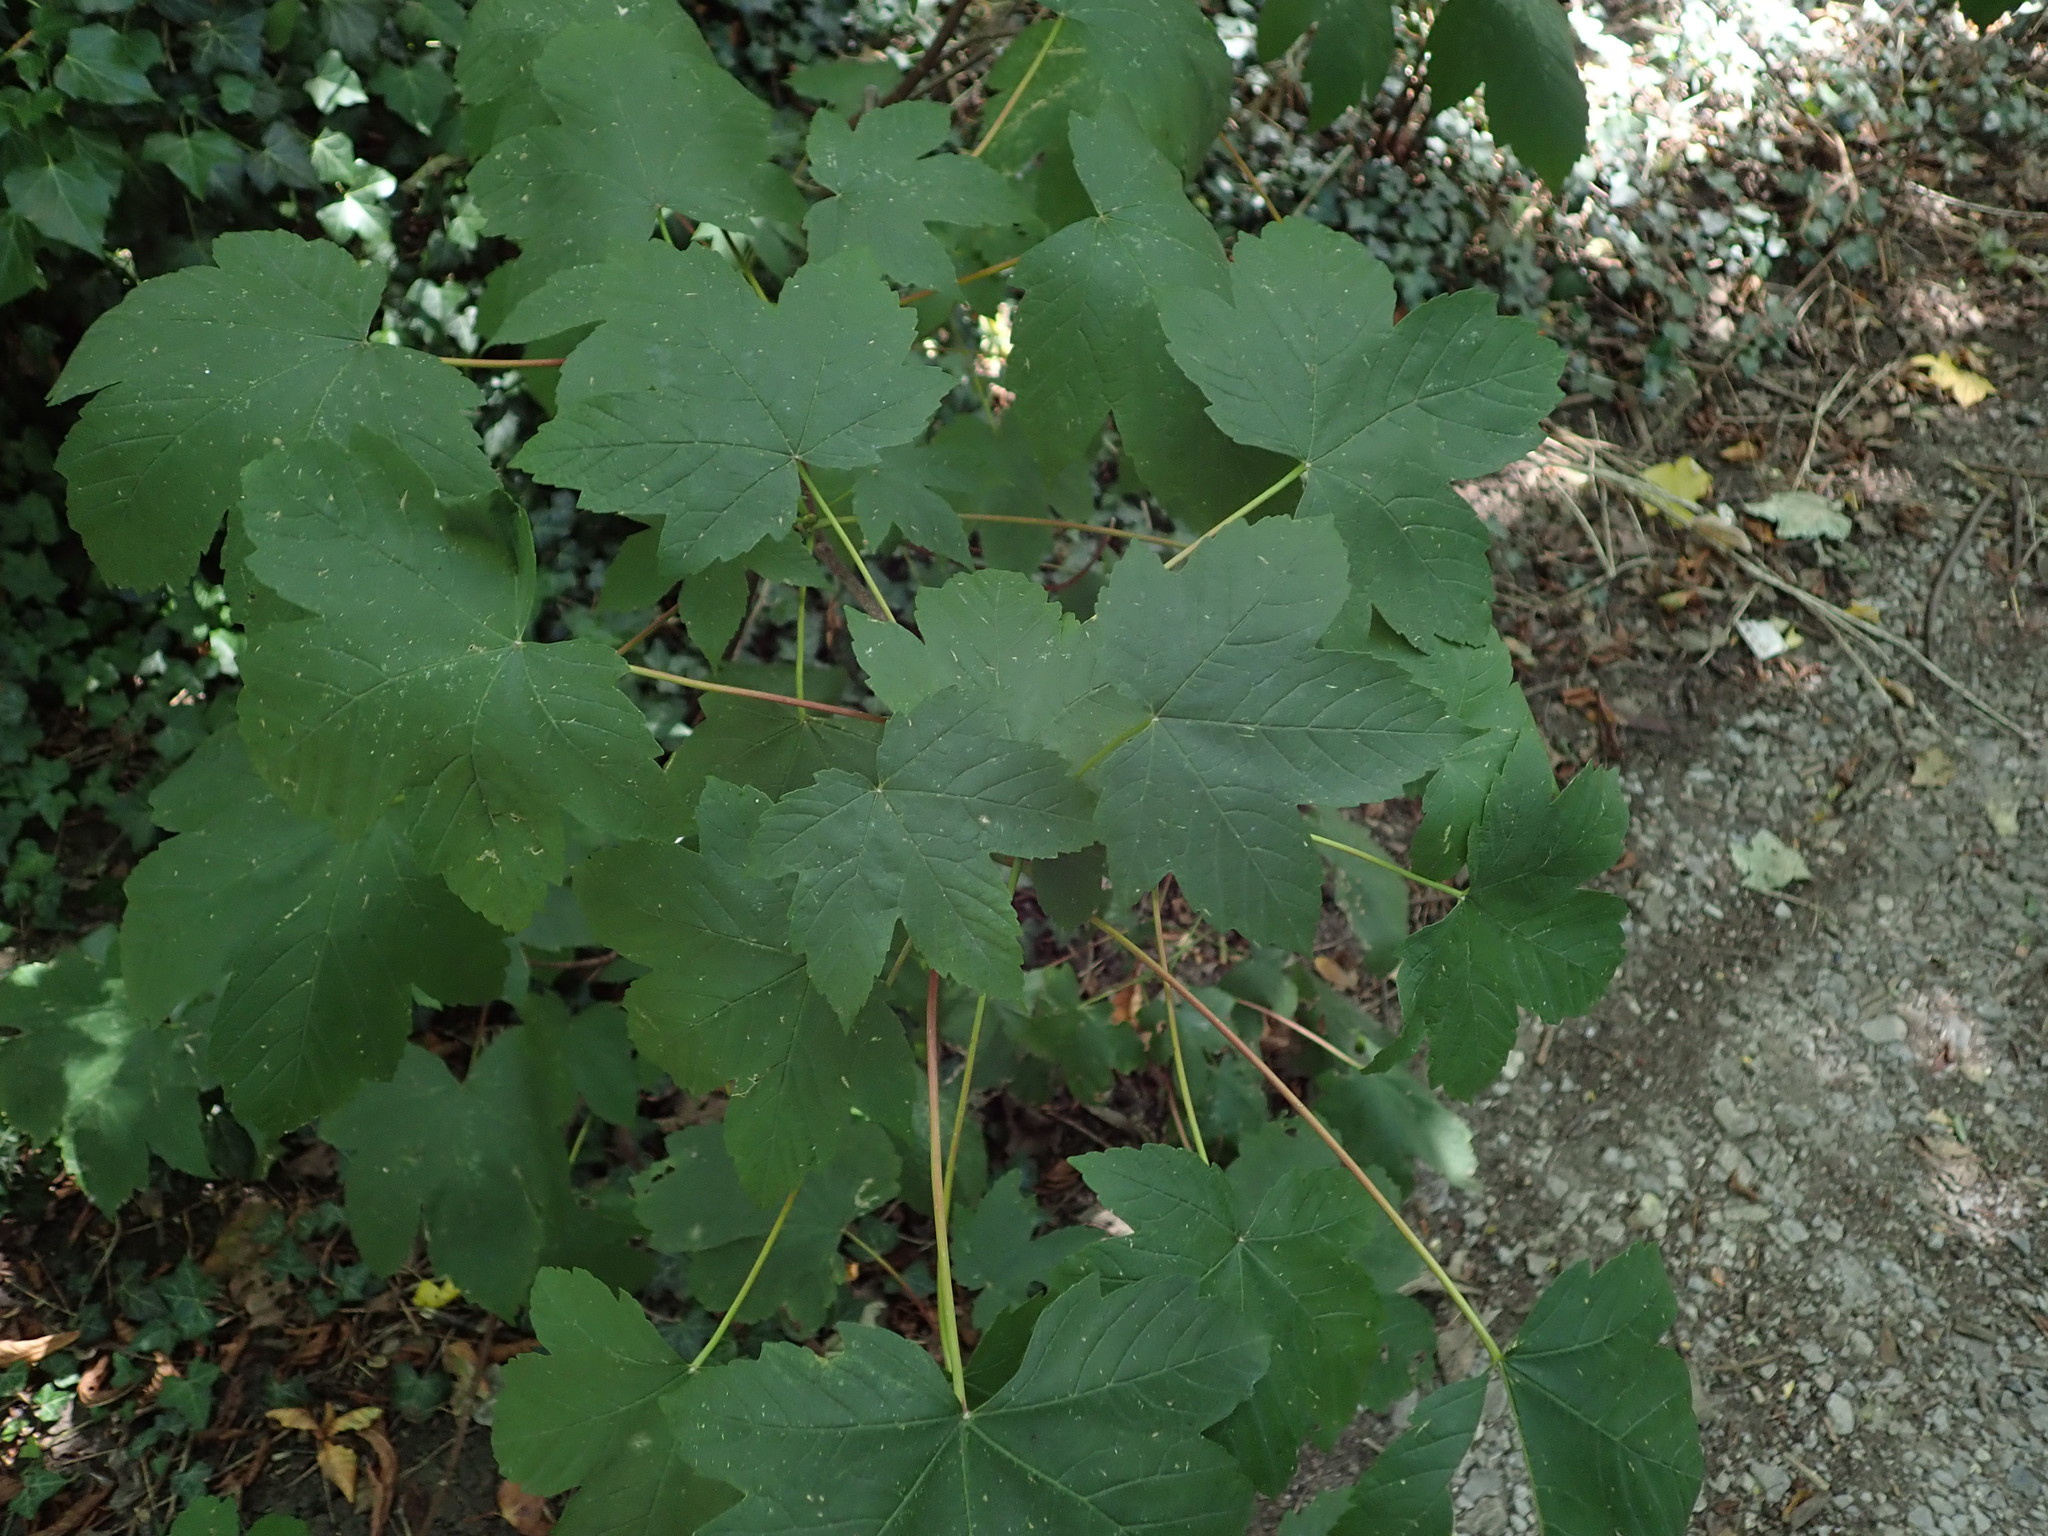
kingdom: Plantae
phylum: Tracheophyta
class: Magnoliopsida
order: Sapindales
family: Sapindaceae
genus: Acer
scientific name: Acer pseudoplatanus
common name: Sycamore
